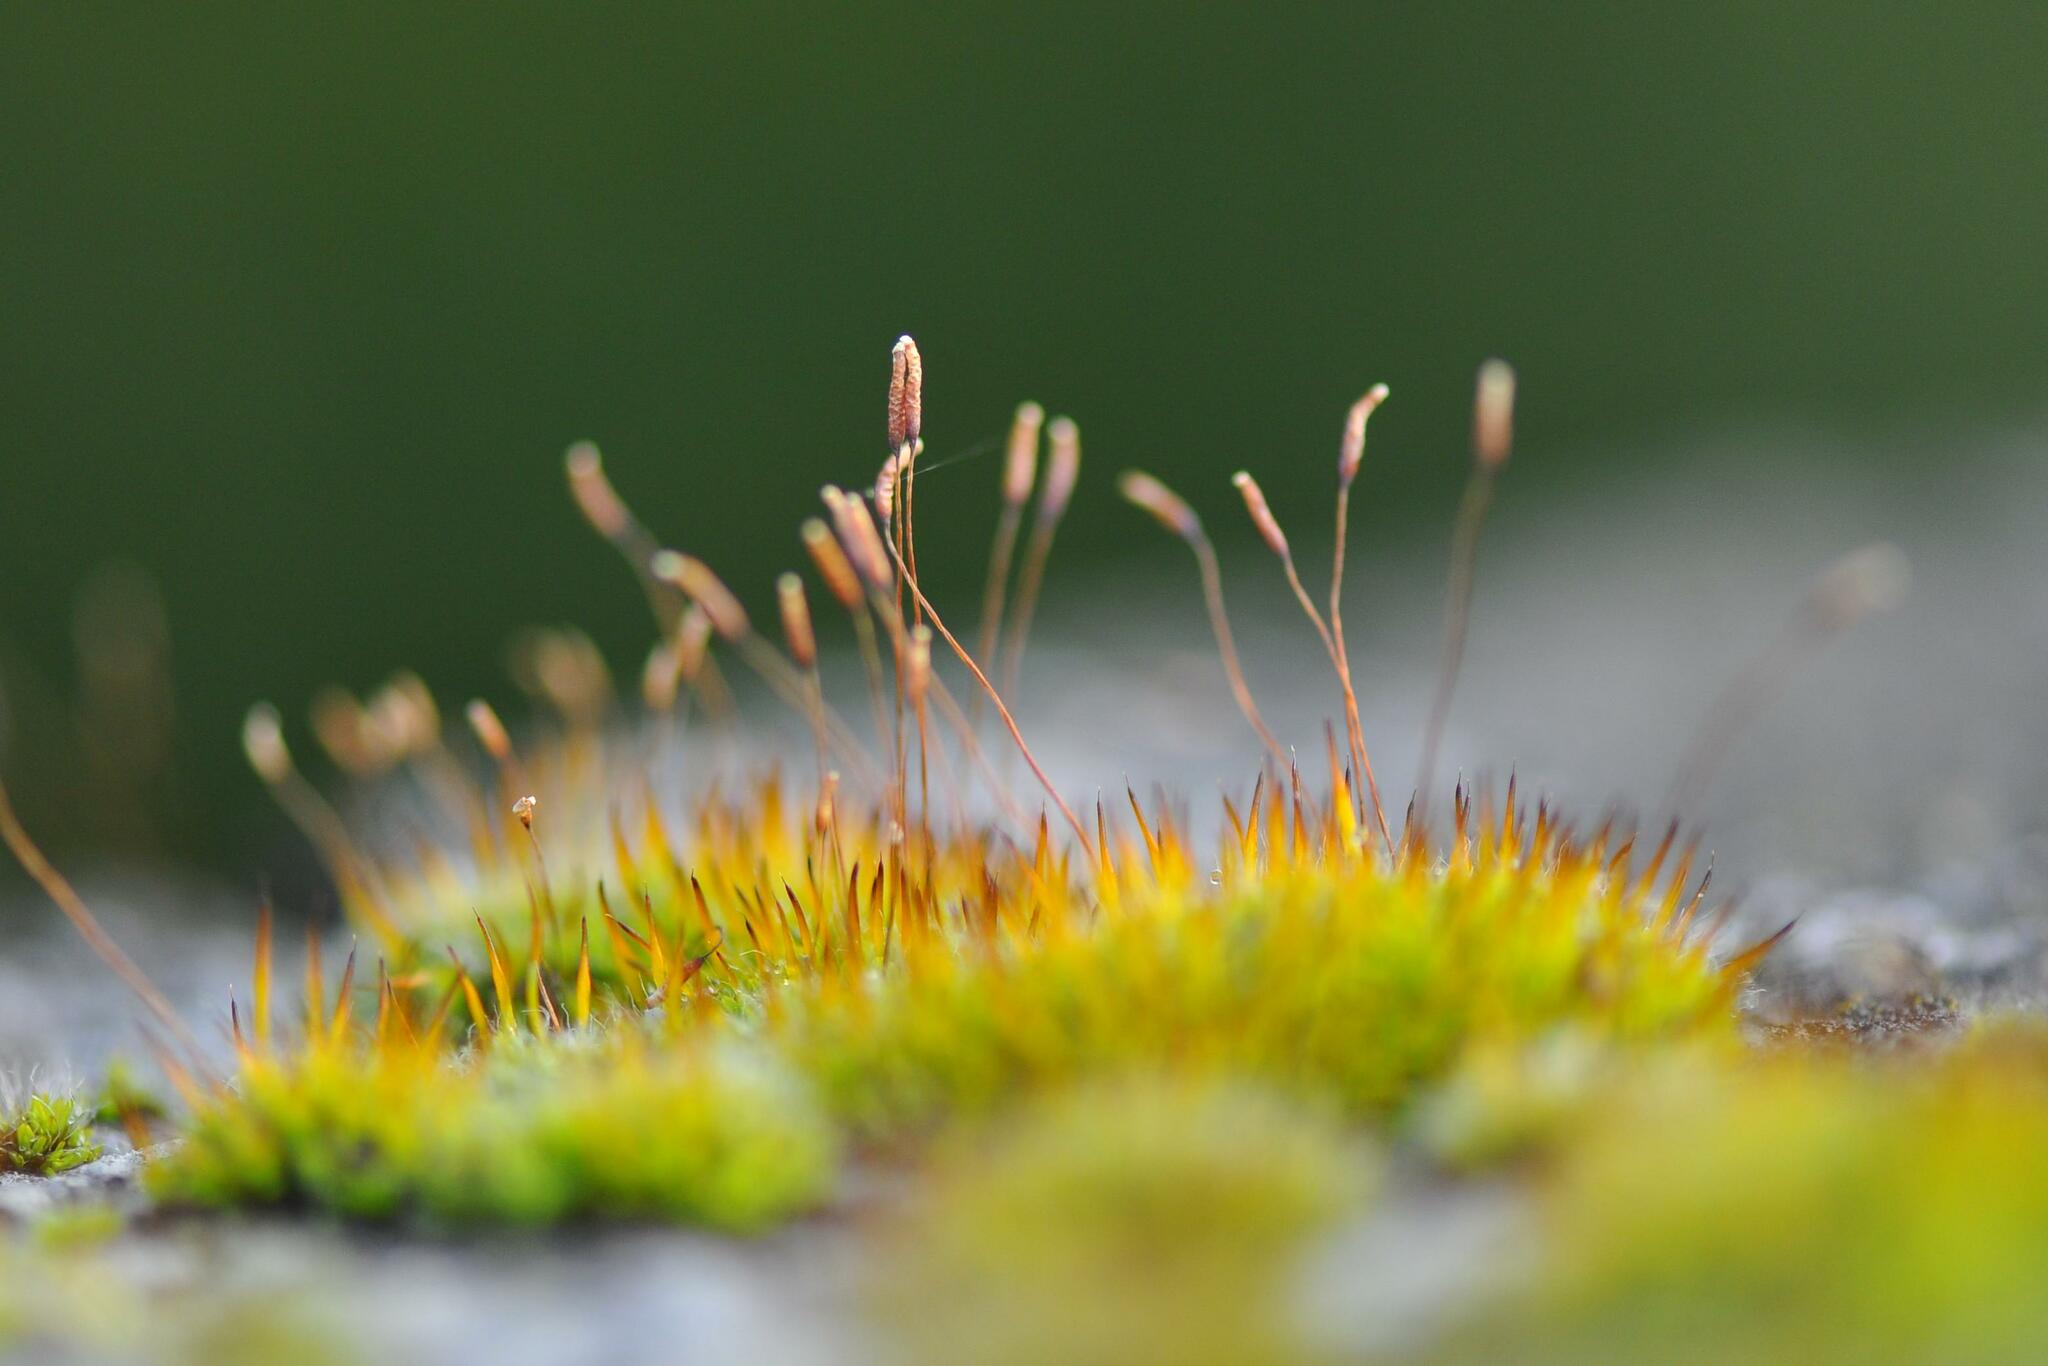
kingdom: Plantae
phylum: Bryophyta
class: Bryopsida
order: Pottiales
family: Pottiaceae
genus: Tortula
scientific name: Tortula muralis
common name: Wall screw-moss
